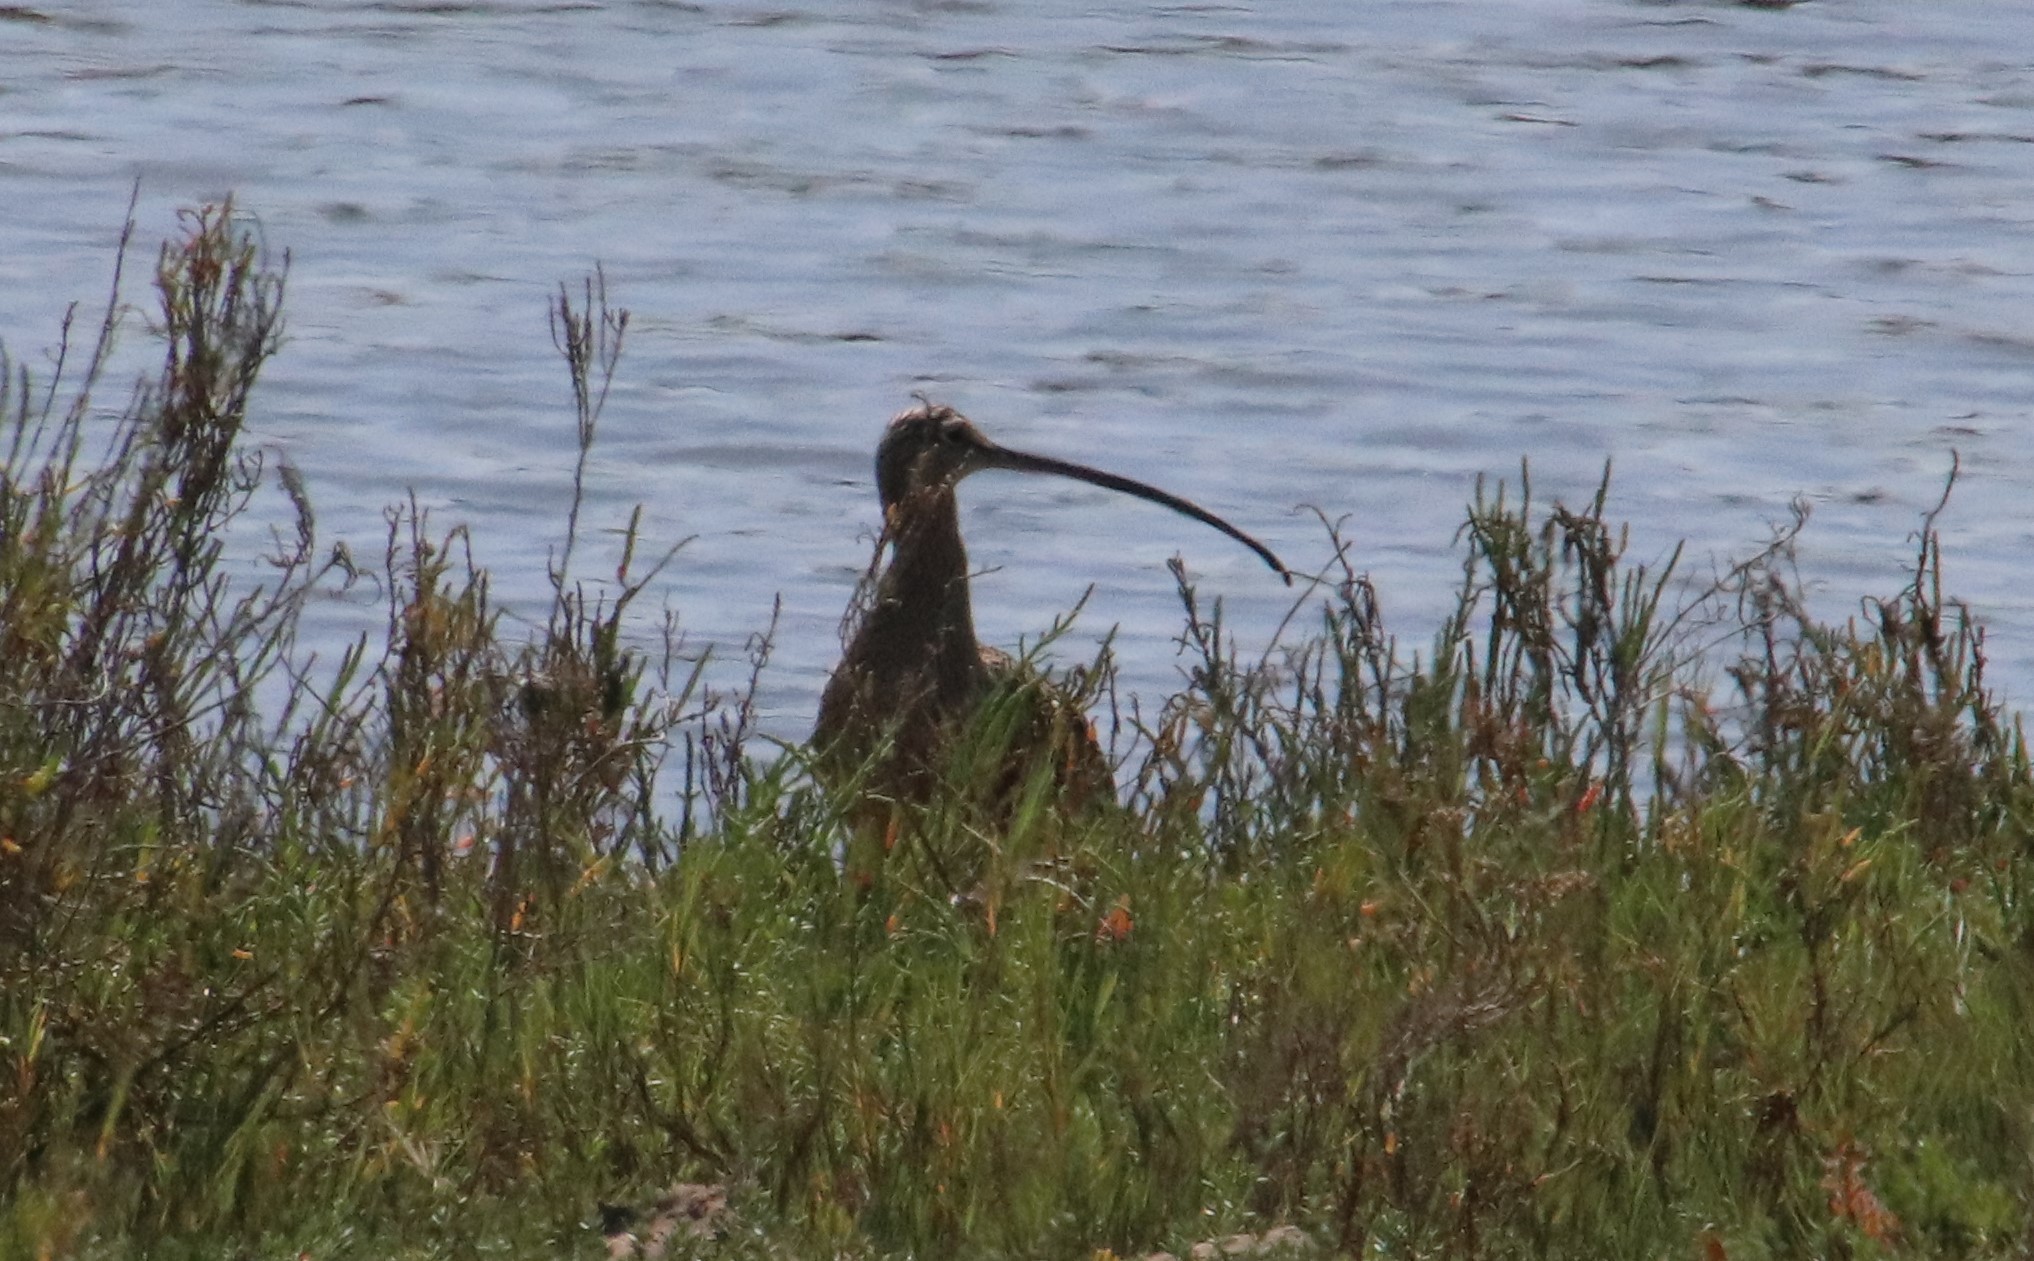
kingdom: Animalia
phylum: Chordata
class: Aves
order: Charadriiformes
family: Scolopacidae
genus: Numenius
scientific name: Numenius americanus
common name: Long-billed curlew
